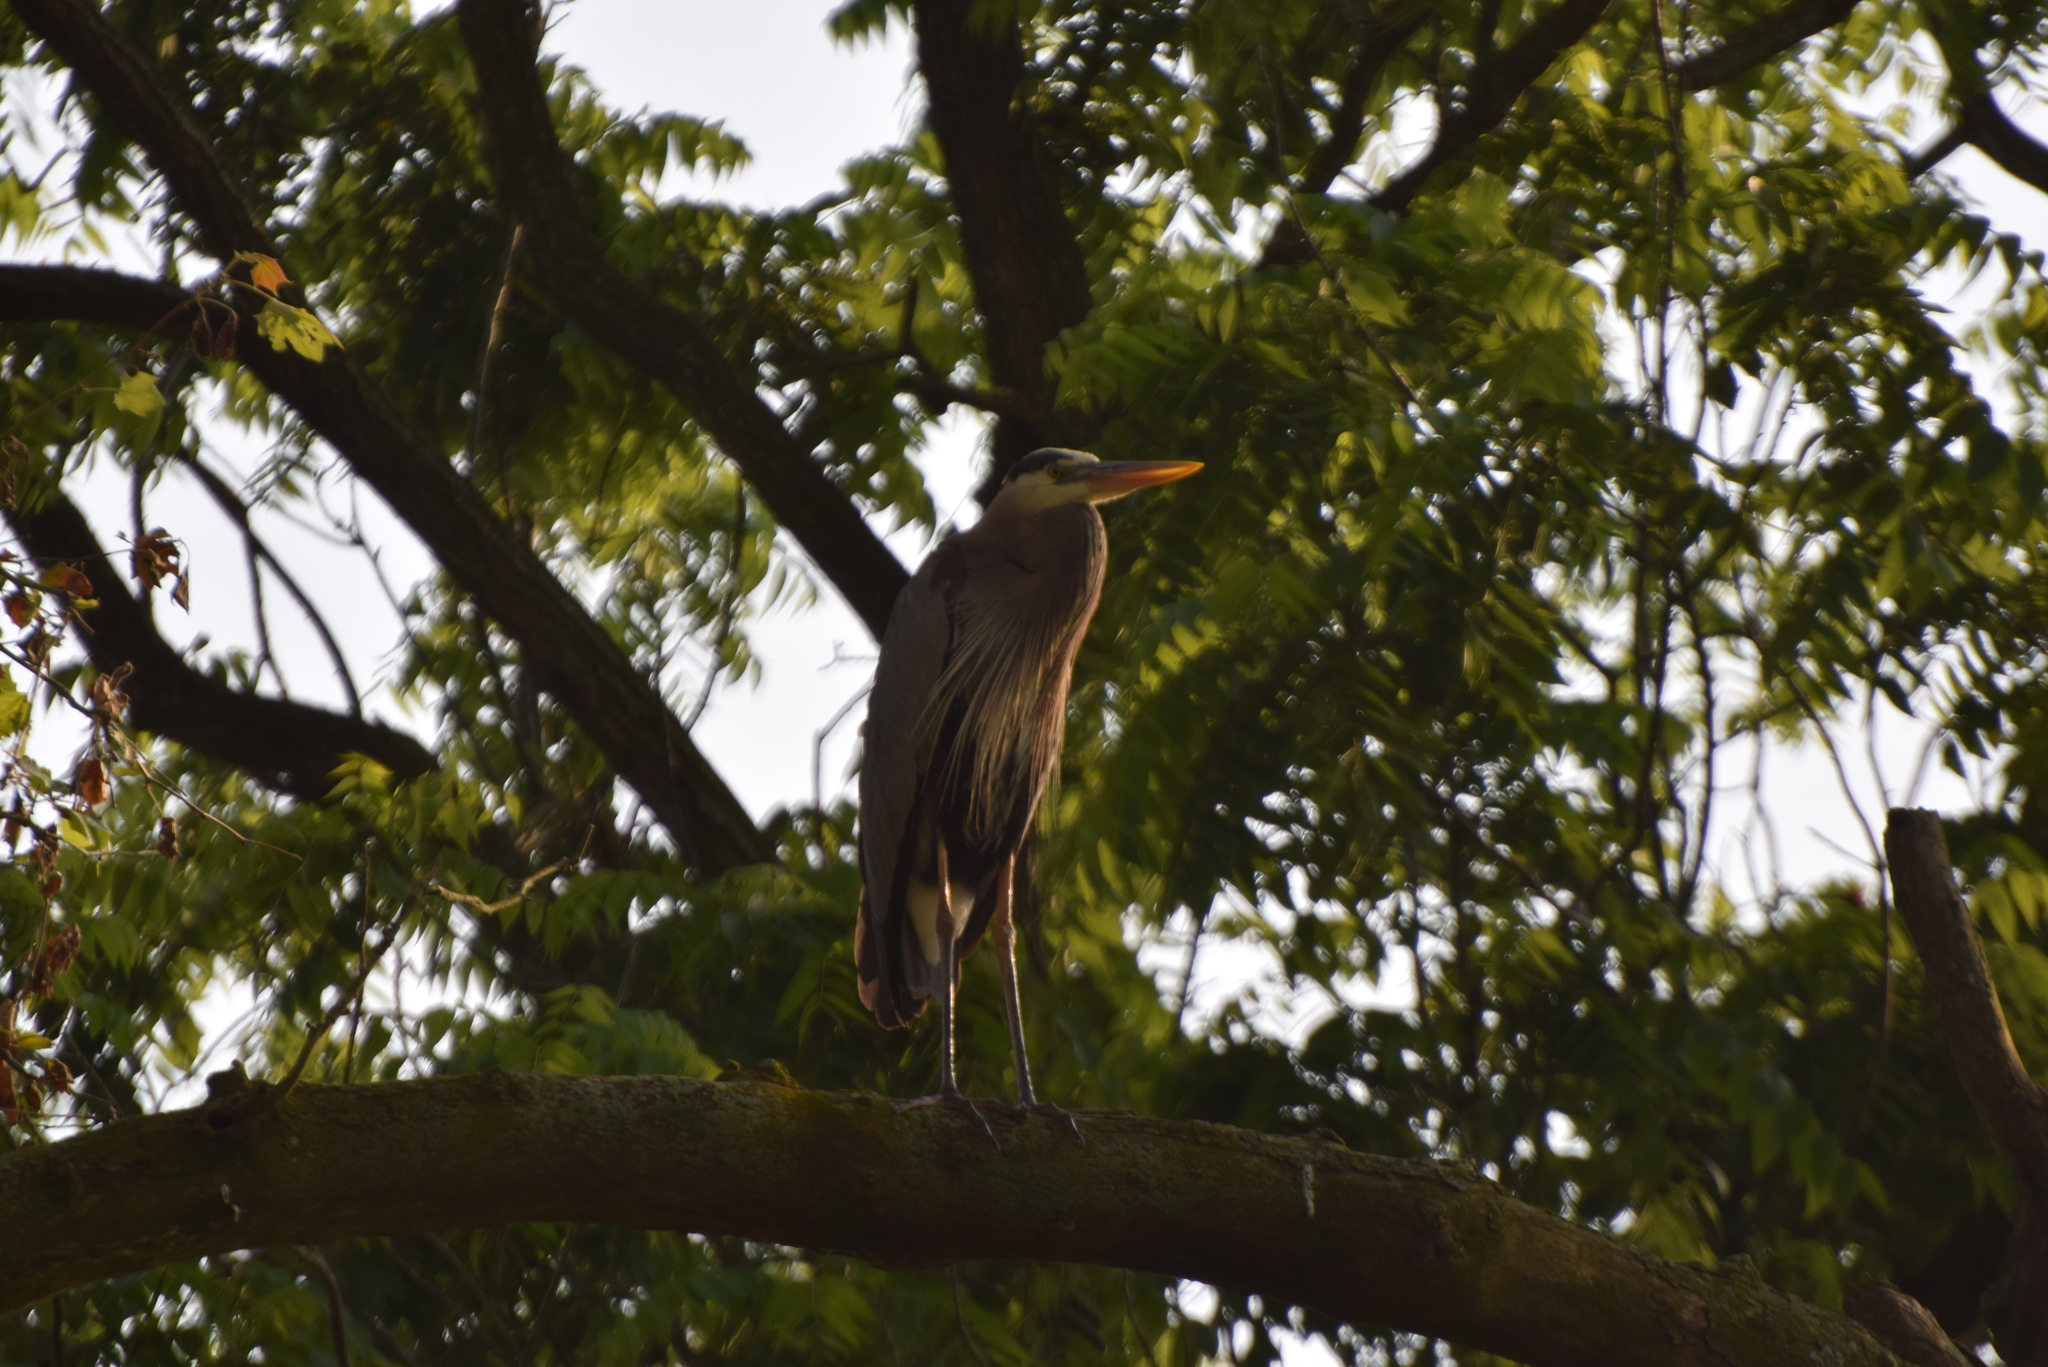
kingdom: Animalia
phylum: Chordata
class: Aves
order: Pelecaniformes
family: Ardeidae
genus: Ardea
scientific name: Ardea herodias
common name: Great blue heron
